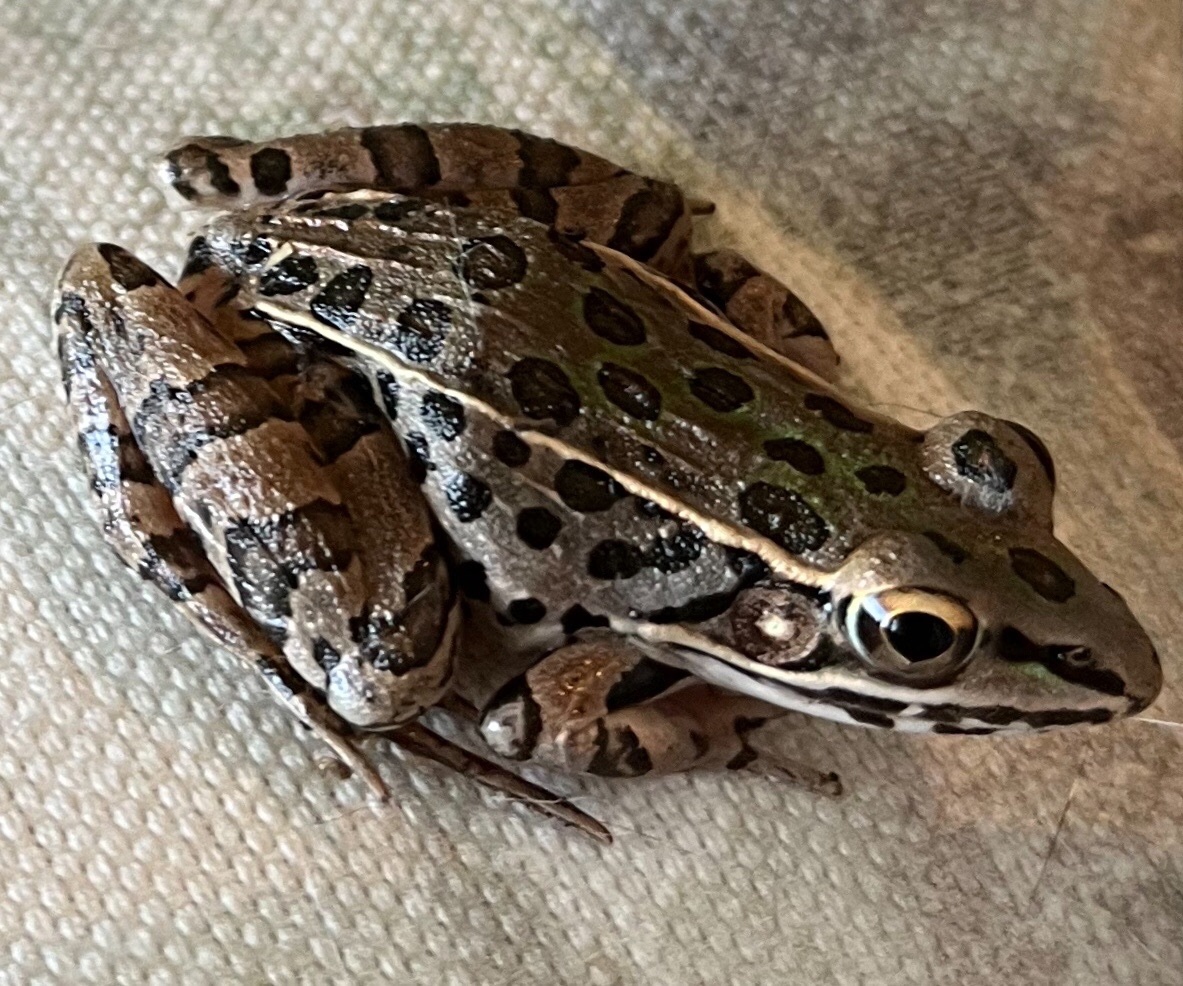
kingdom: Animalia
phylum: Chordata
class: Amphibia
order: Anura
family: Ranidae
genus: Lithobates
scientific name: Lithobates sphenocephalus
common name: Southern leopard frog
